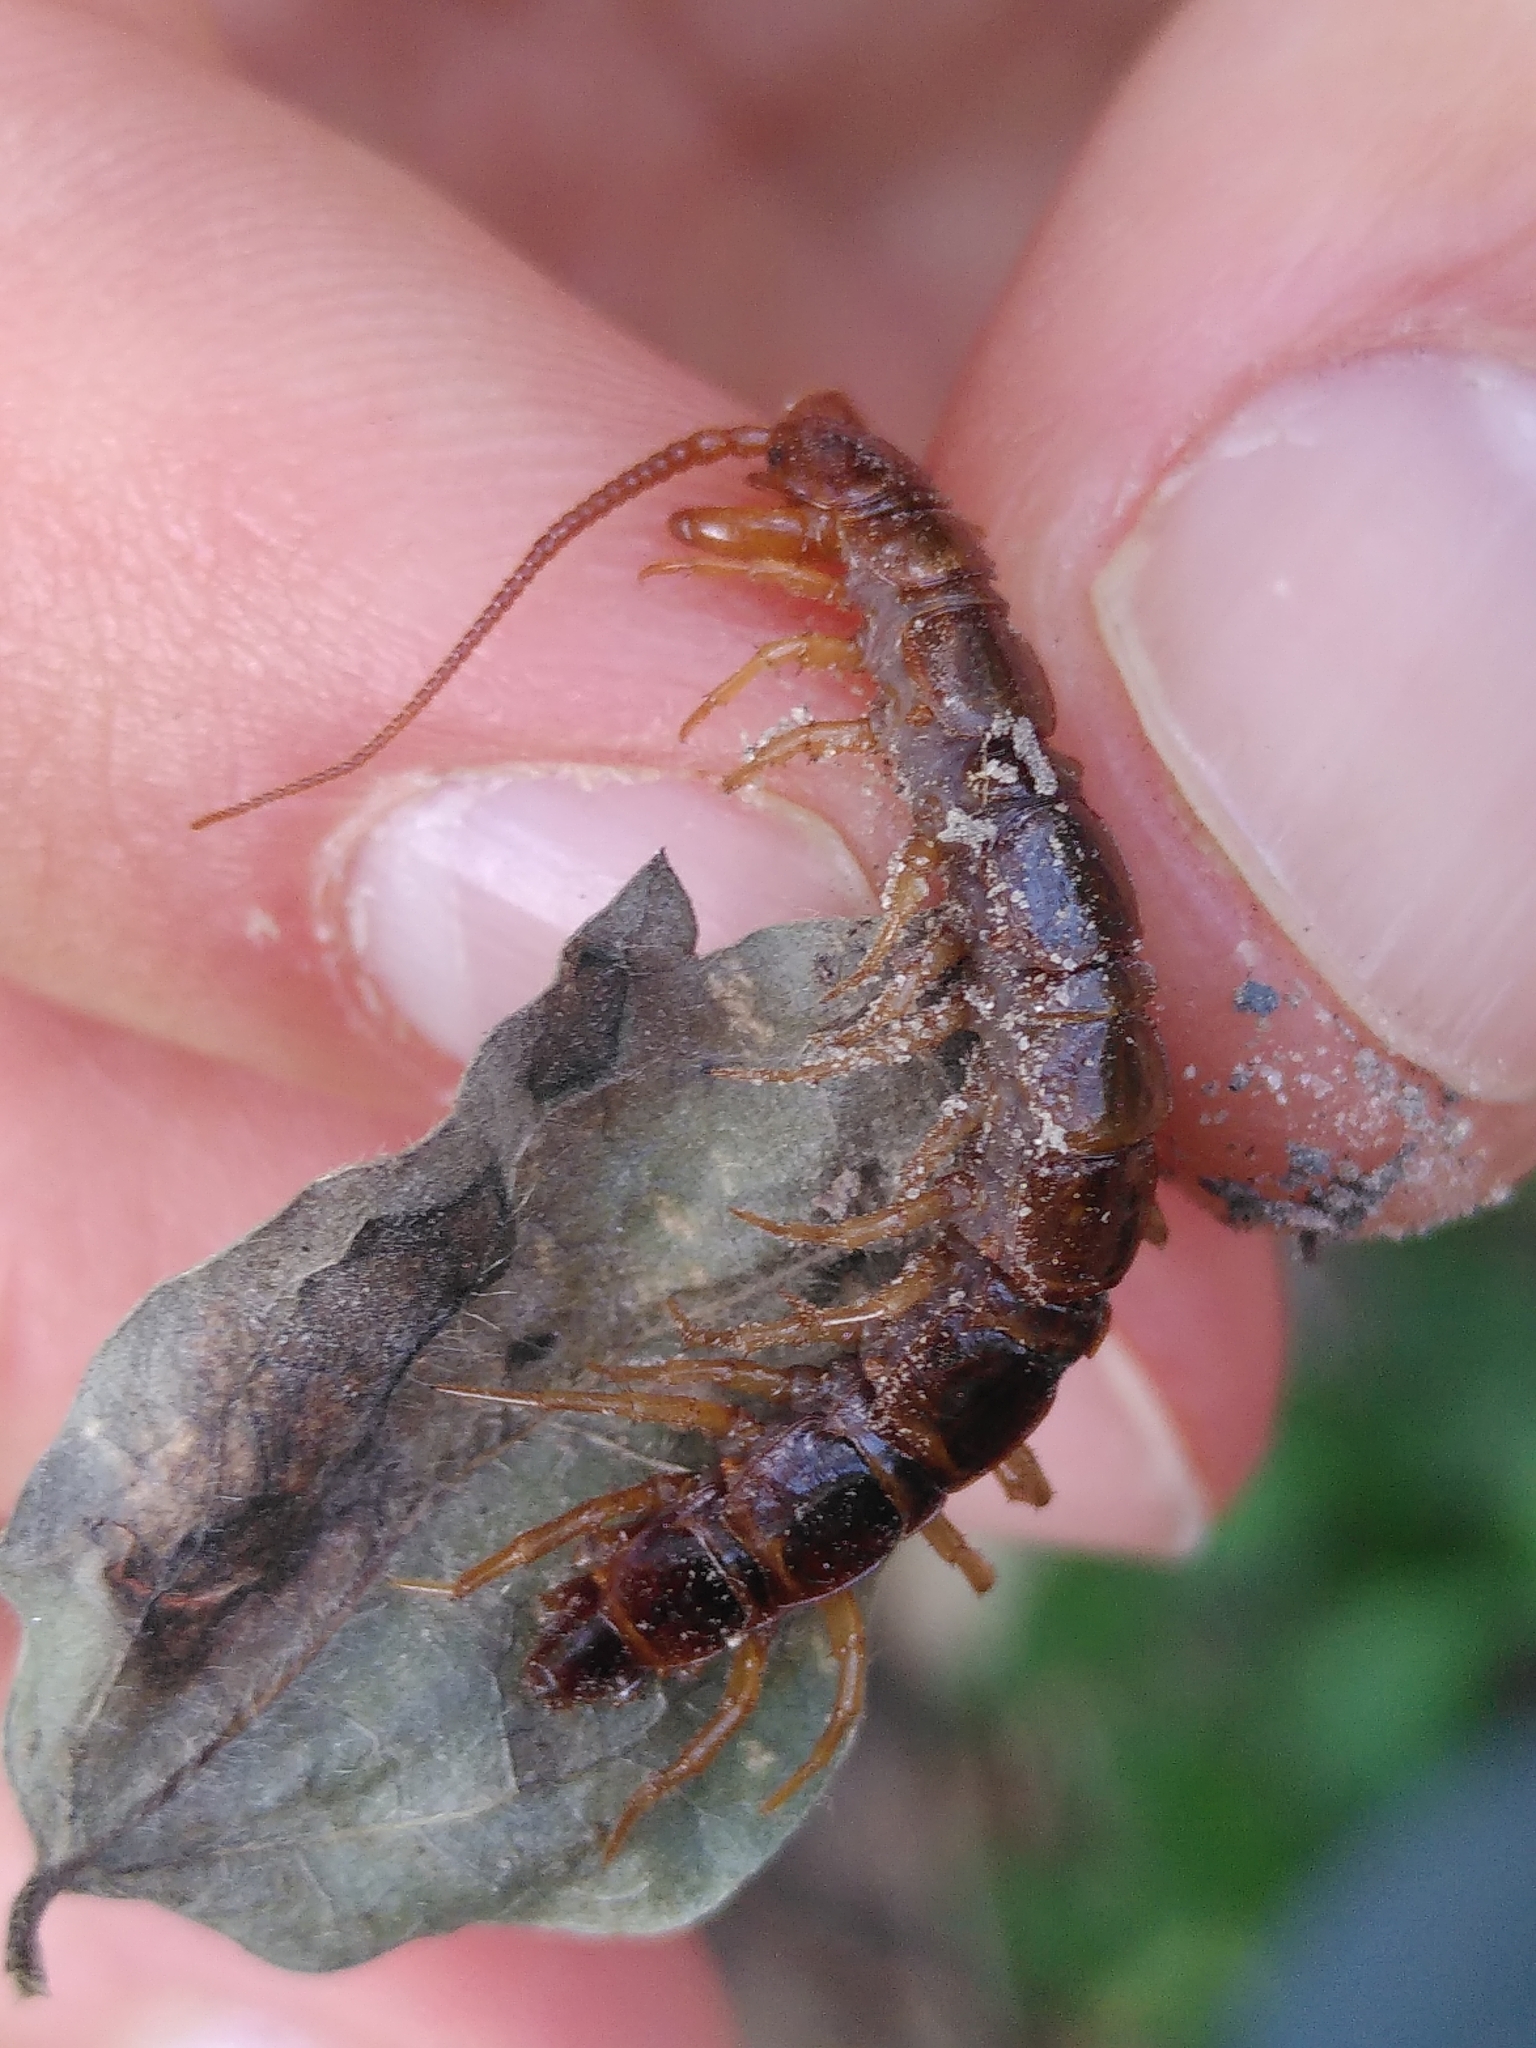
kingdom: Animalia
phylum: Arthropoda
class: Chilopoda
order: Lithobiomorpha
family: Lithobiidae
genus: Lithobius
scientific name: Lithobius forficatus
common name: Centipede
